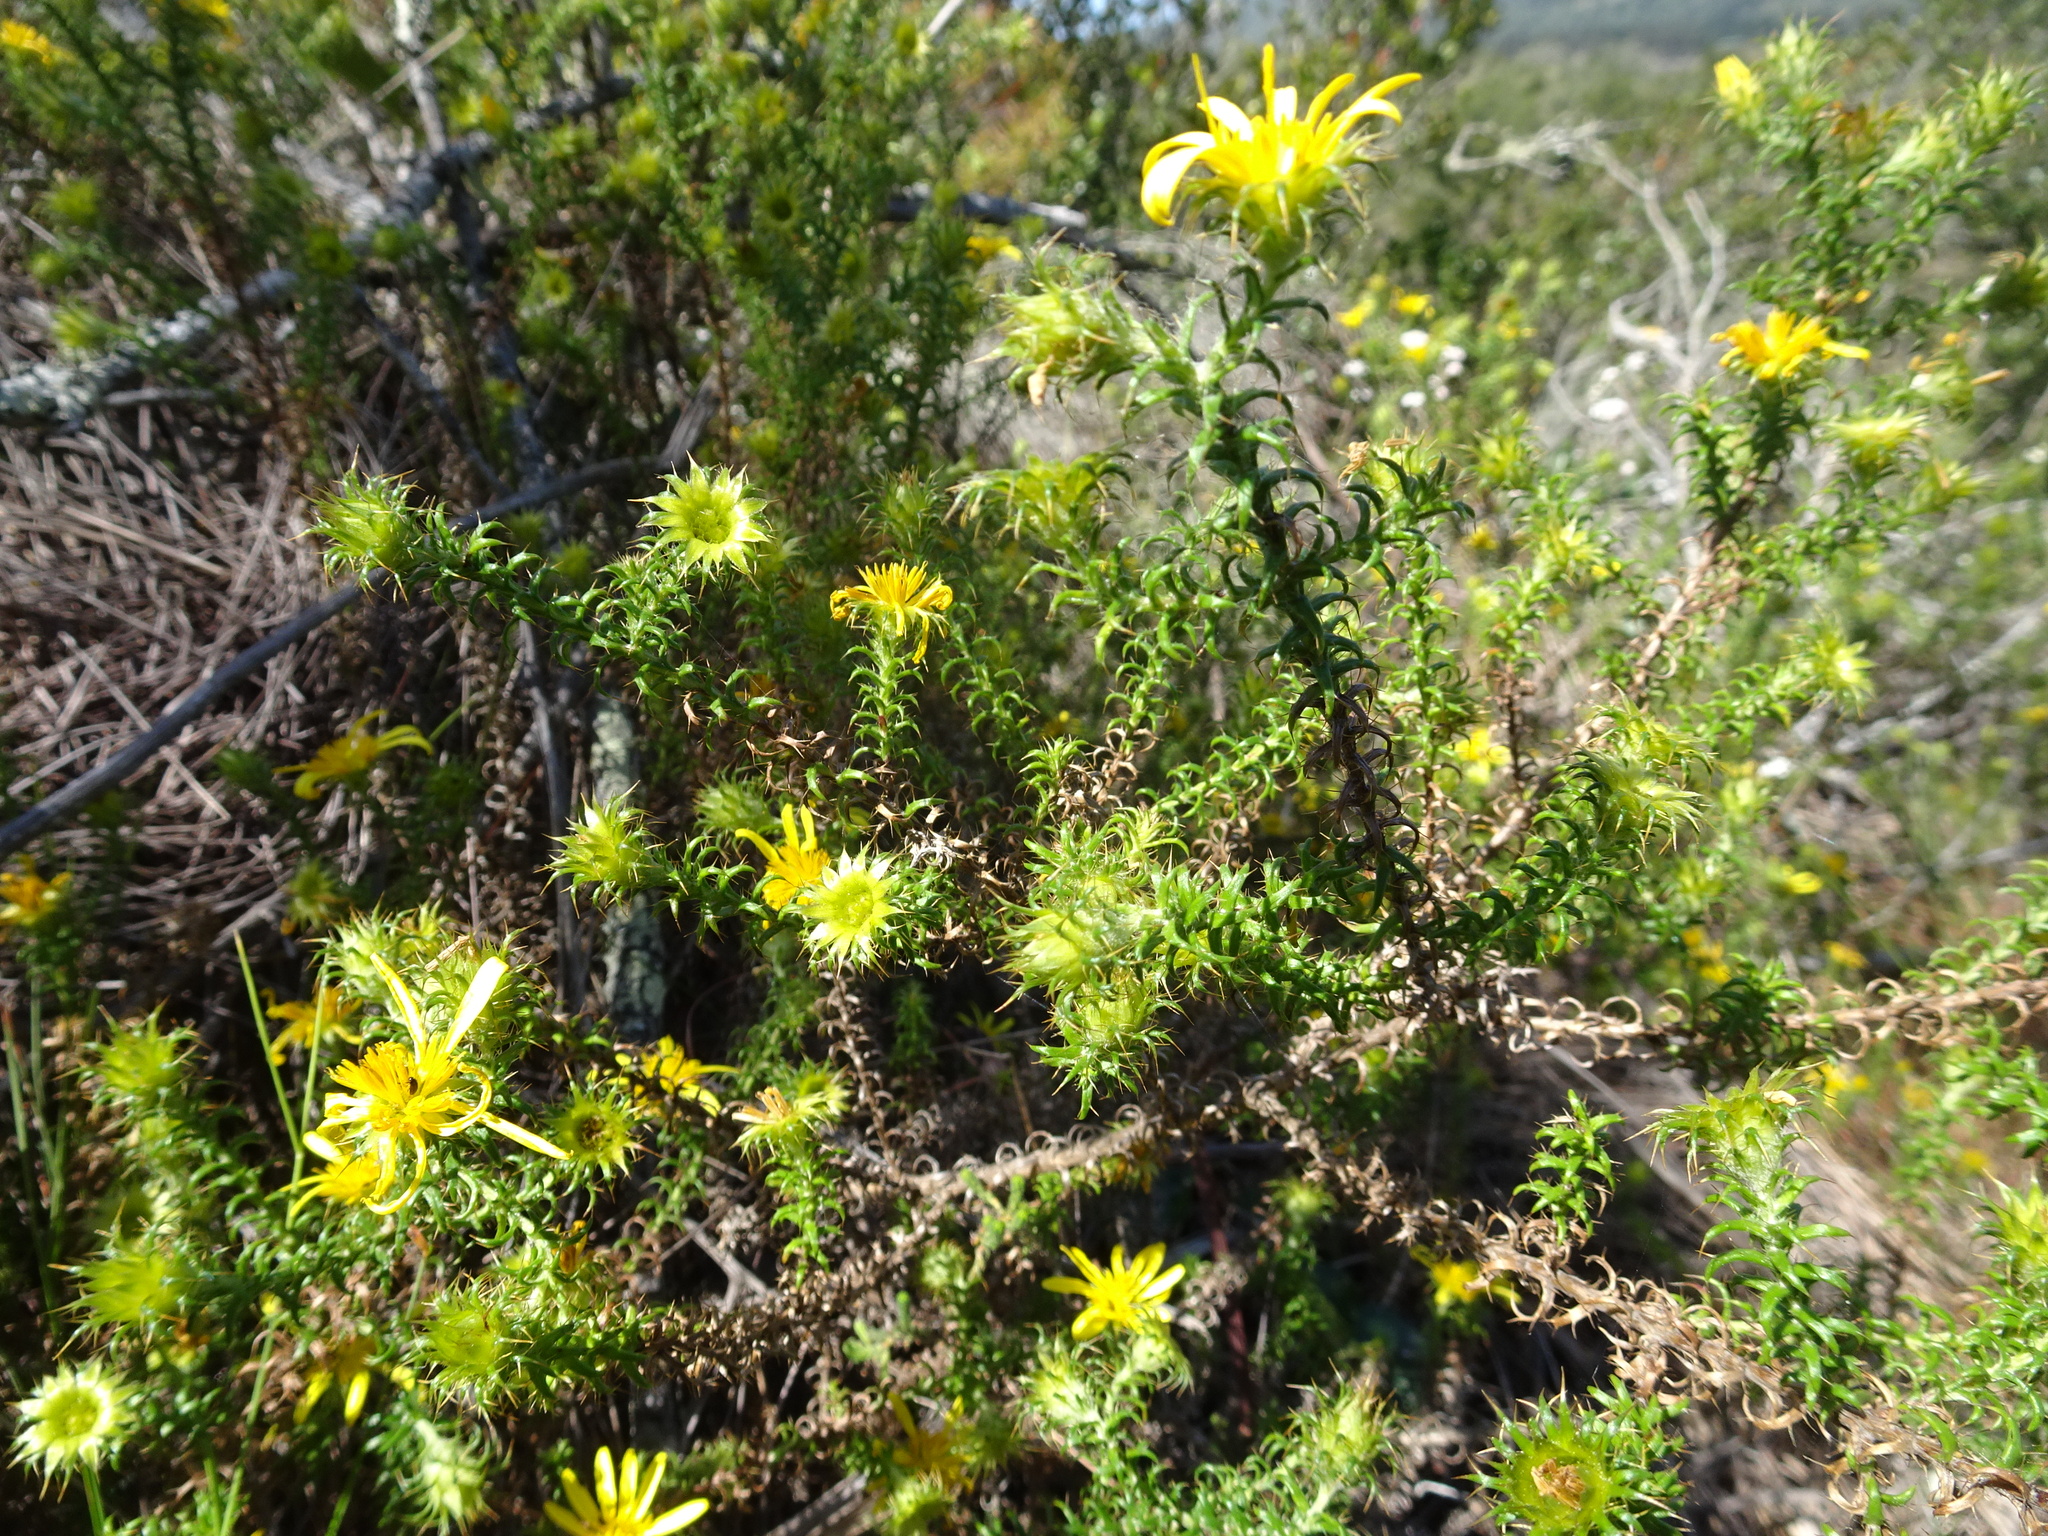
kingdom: Plantae
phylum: Tracheophyta
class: Magnoliopsida
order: Asterales
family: Asteraceae
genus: Cullumia
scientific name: Cullumia decurrens
